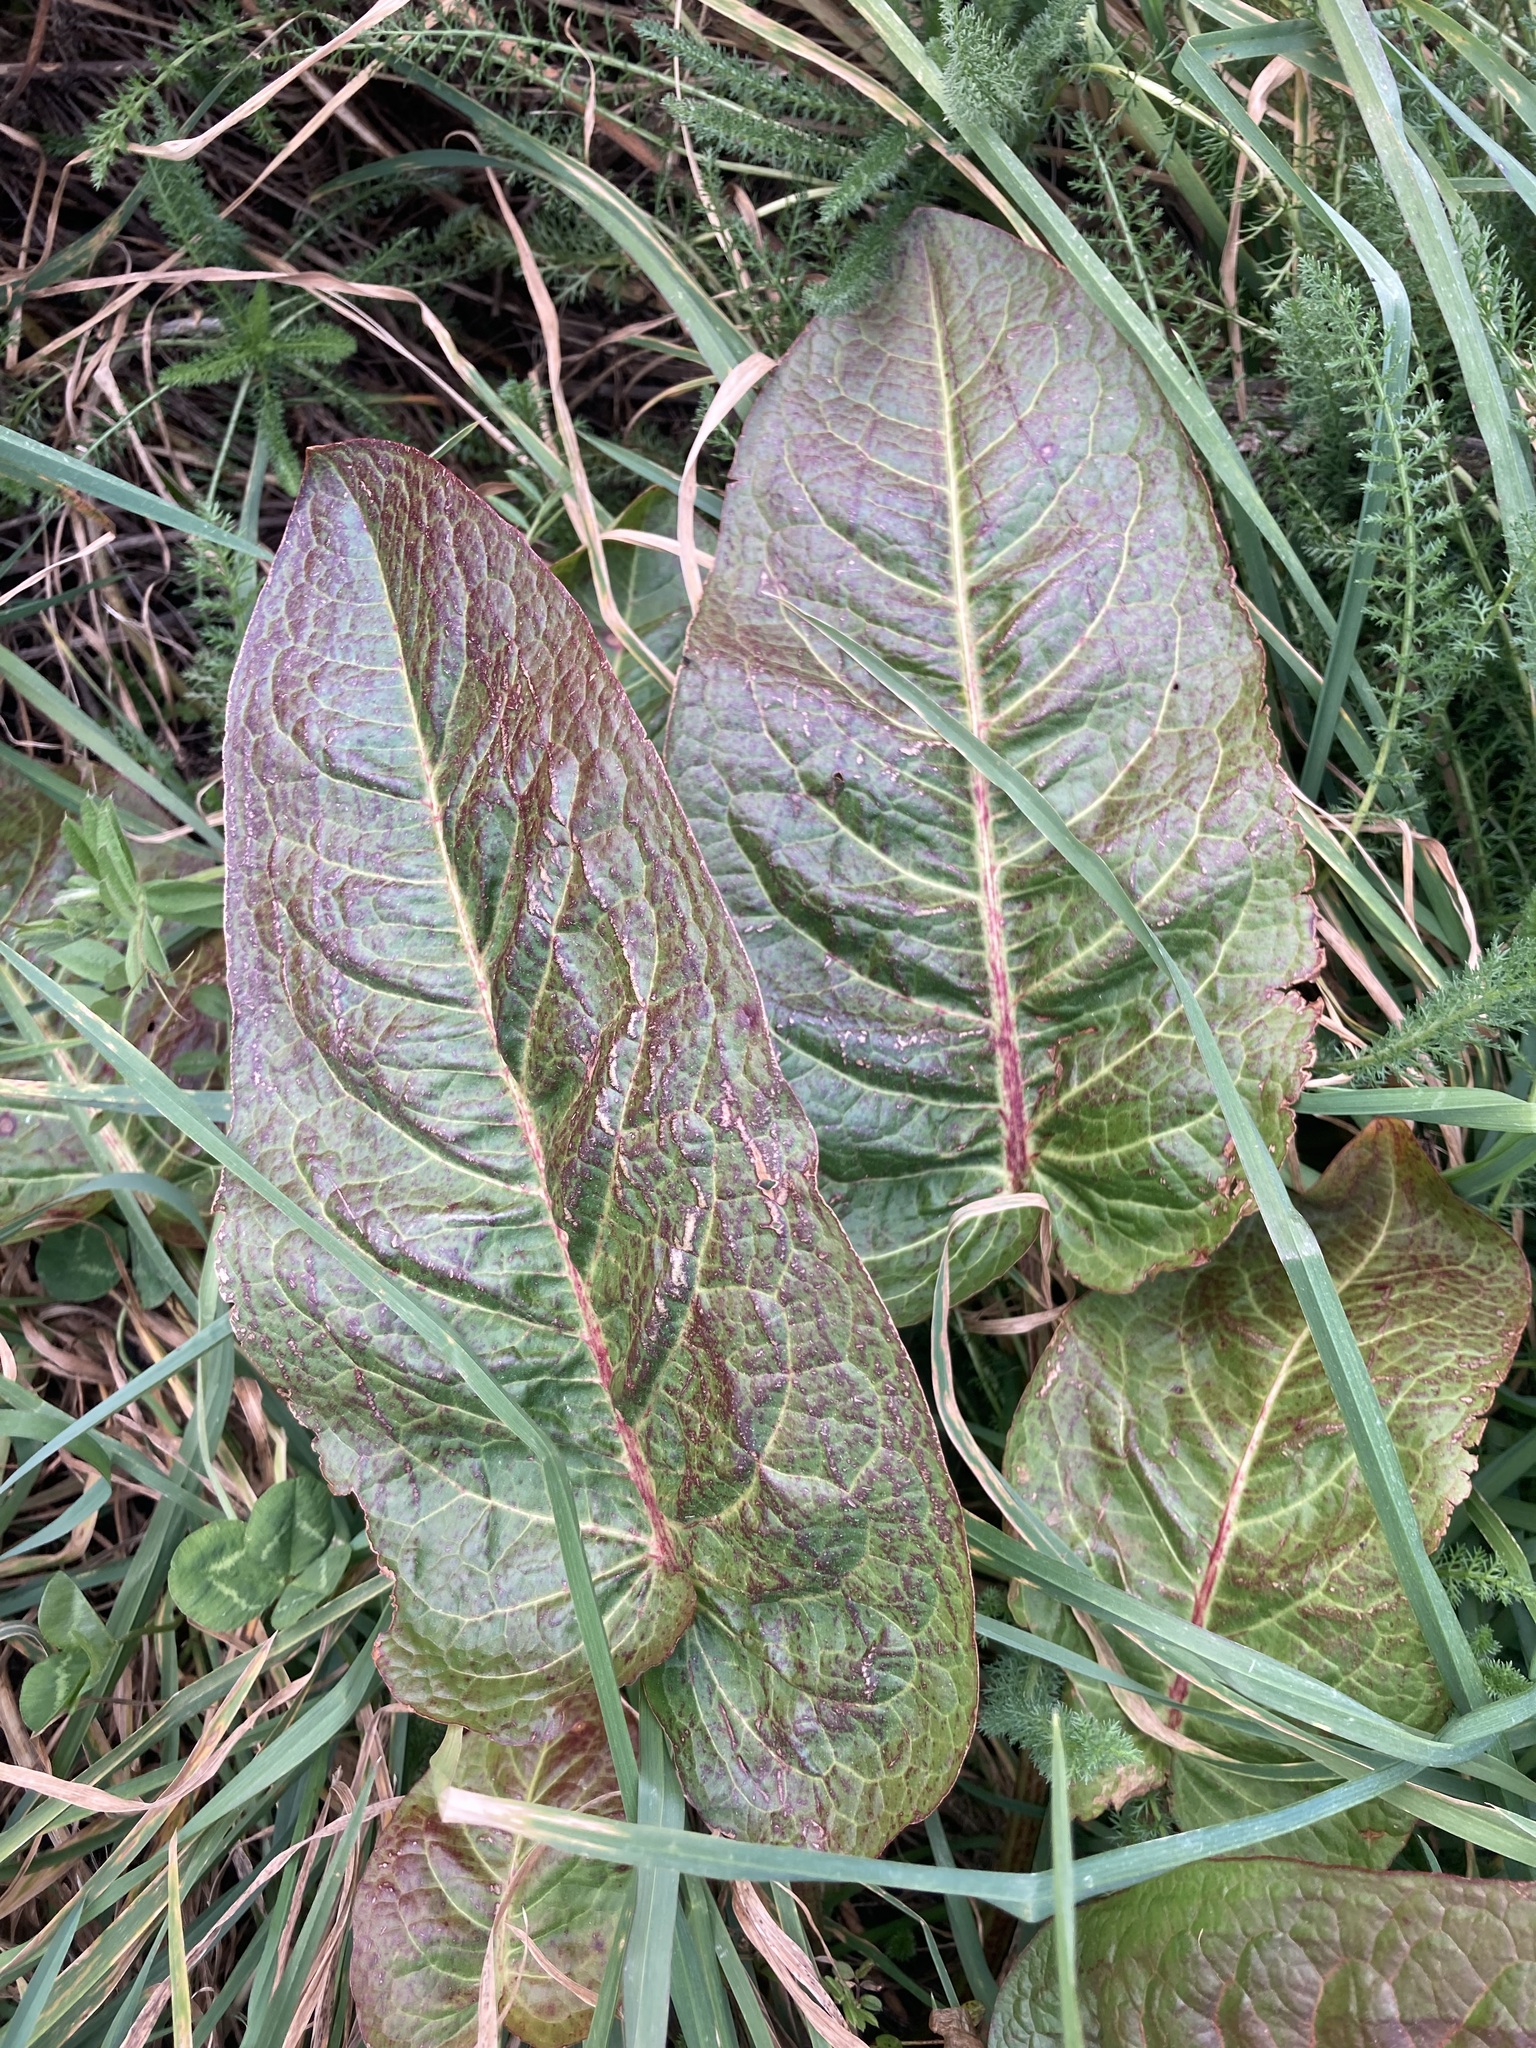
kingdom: Plantae
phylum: Tracheophyta
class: Magnoliopsida
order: Caryophyllales
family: Polygonaceae
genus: Rumex
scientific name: Rumex obtusifolius
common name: Bitter dock
